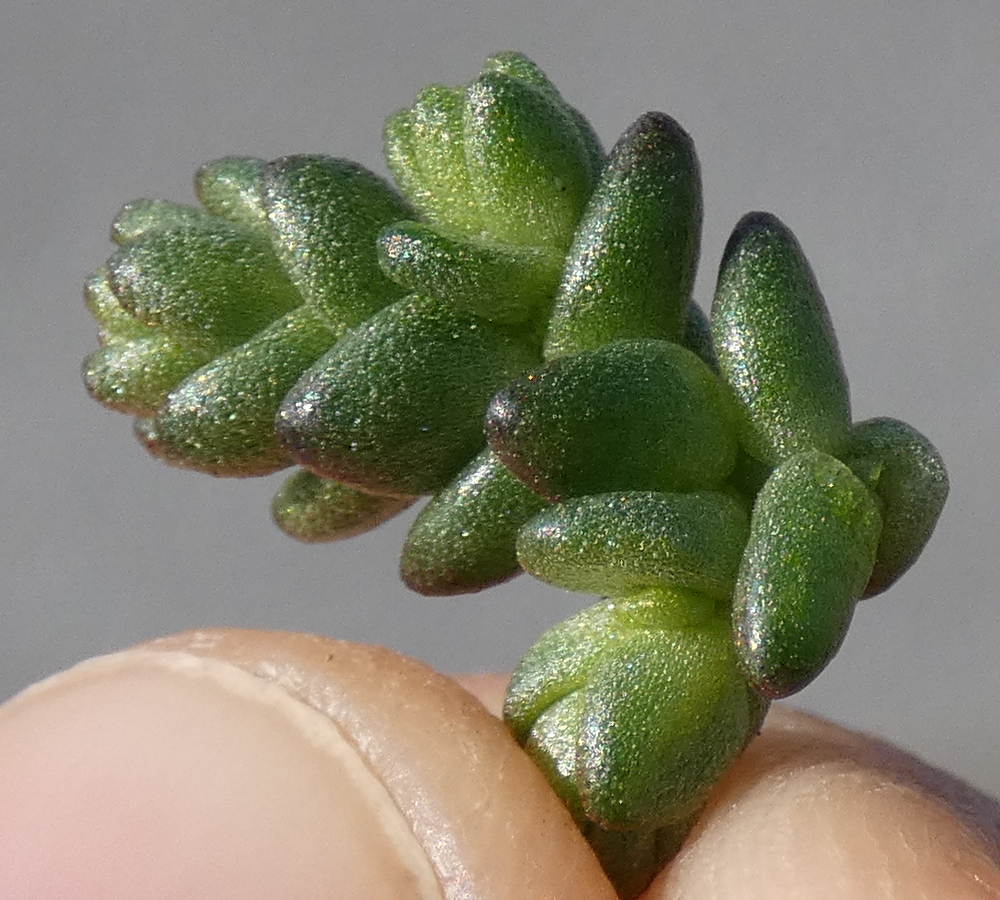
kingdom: Plantae
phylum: Tracheophyta
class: Magnoliopsida
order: Saxifragales
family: Crassulaceae
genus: Sedum
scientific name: Sedum acre
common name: Biting stonecrop
